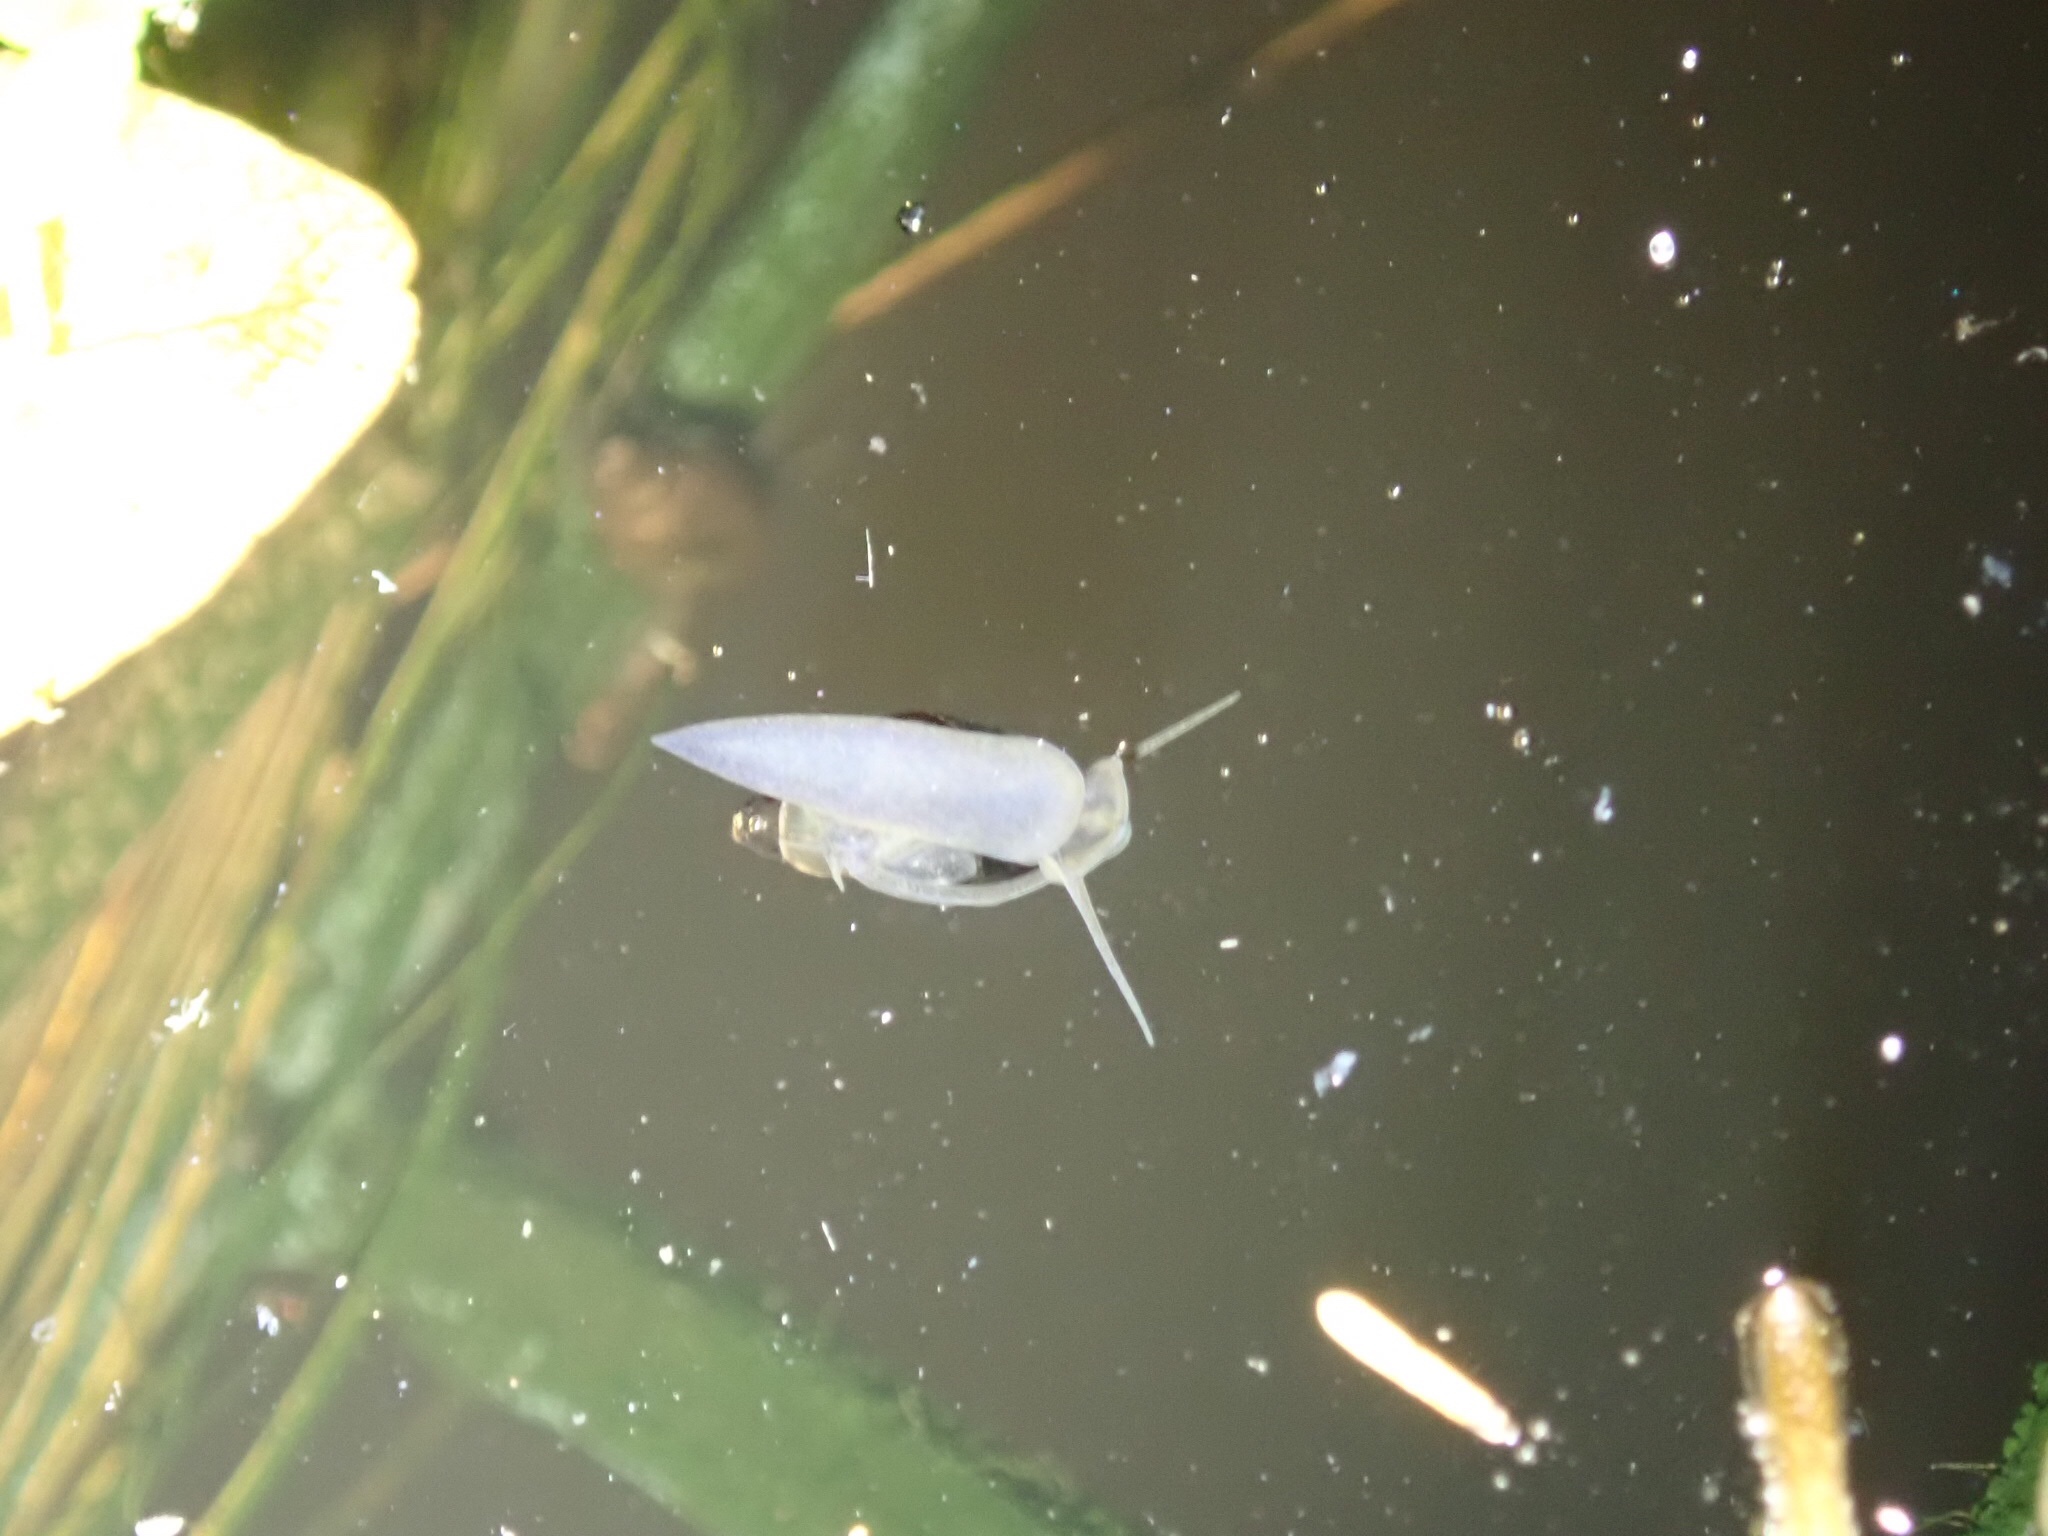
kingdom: Animalia
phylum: Mollusca
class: Gastropoda
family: Physidae
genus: Physella
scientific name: Physella acuta
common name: European physa
